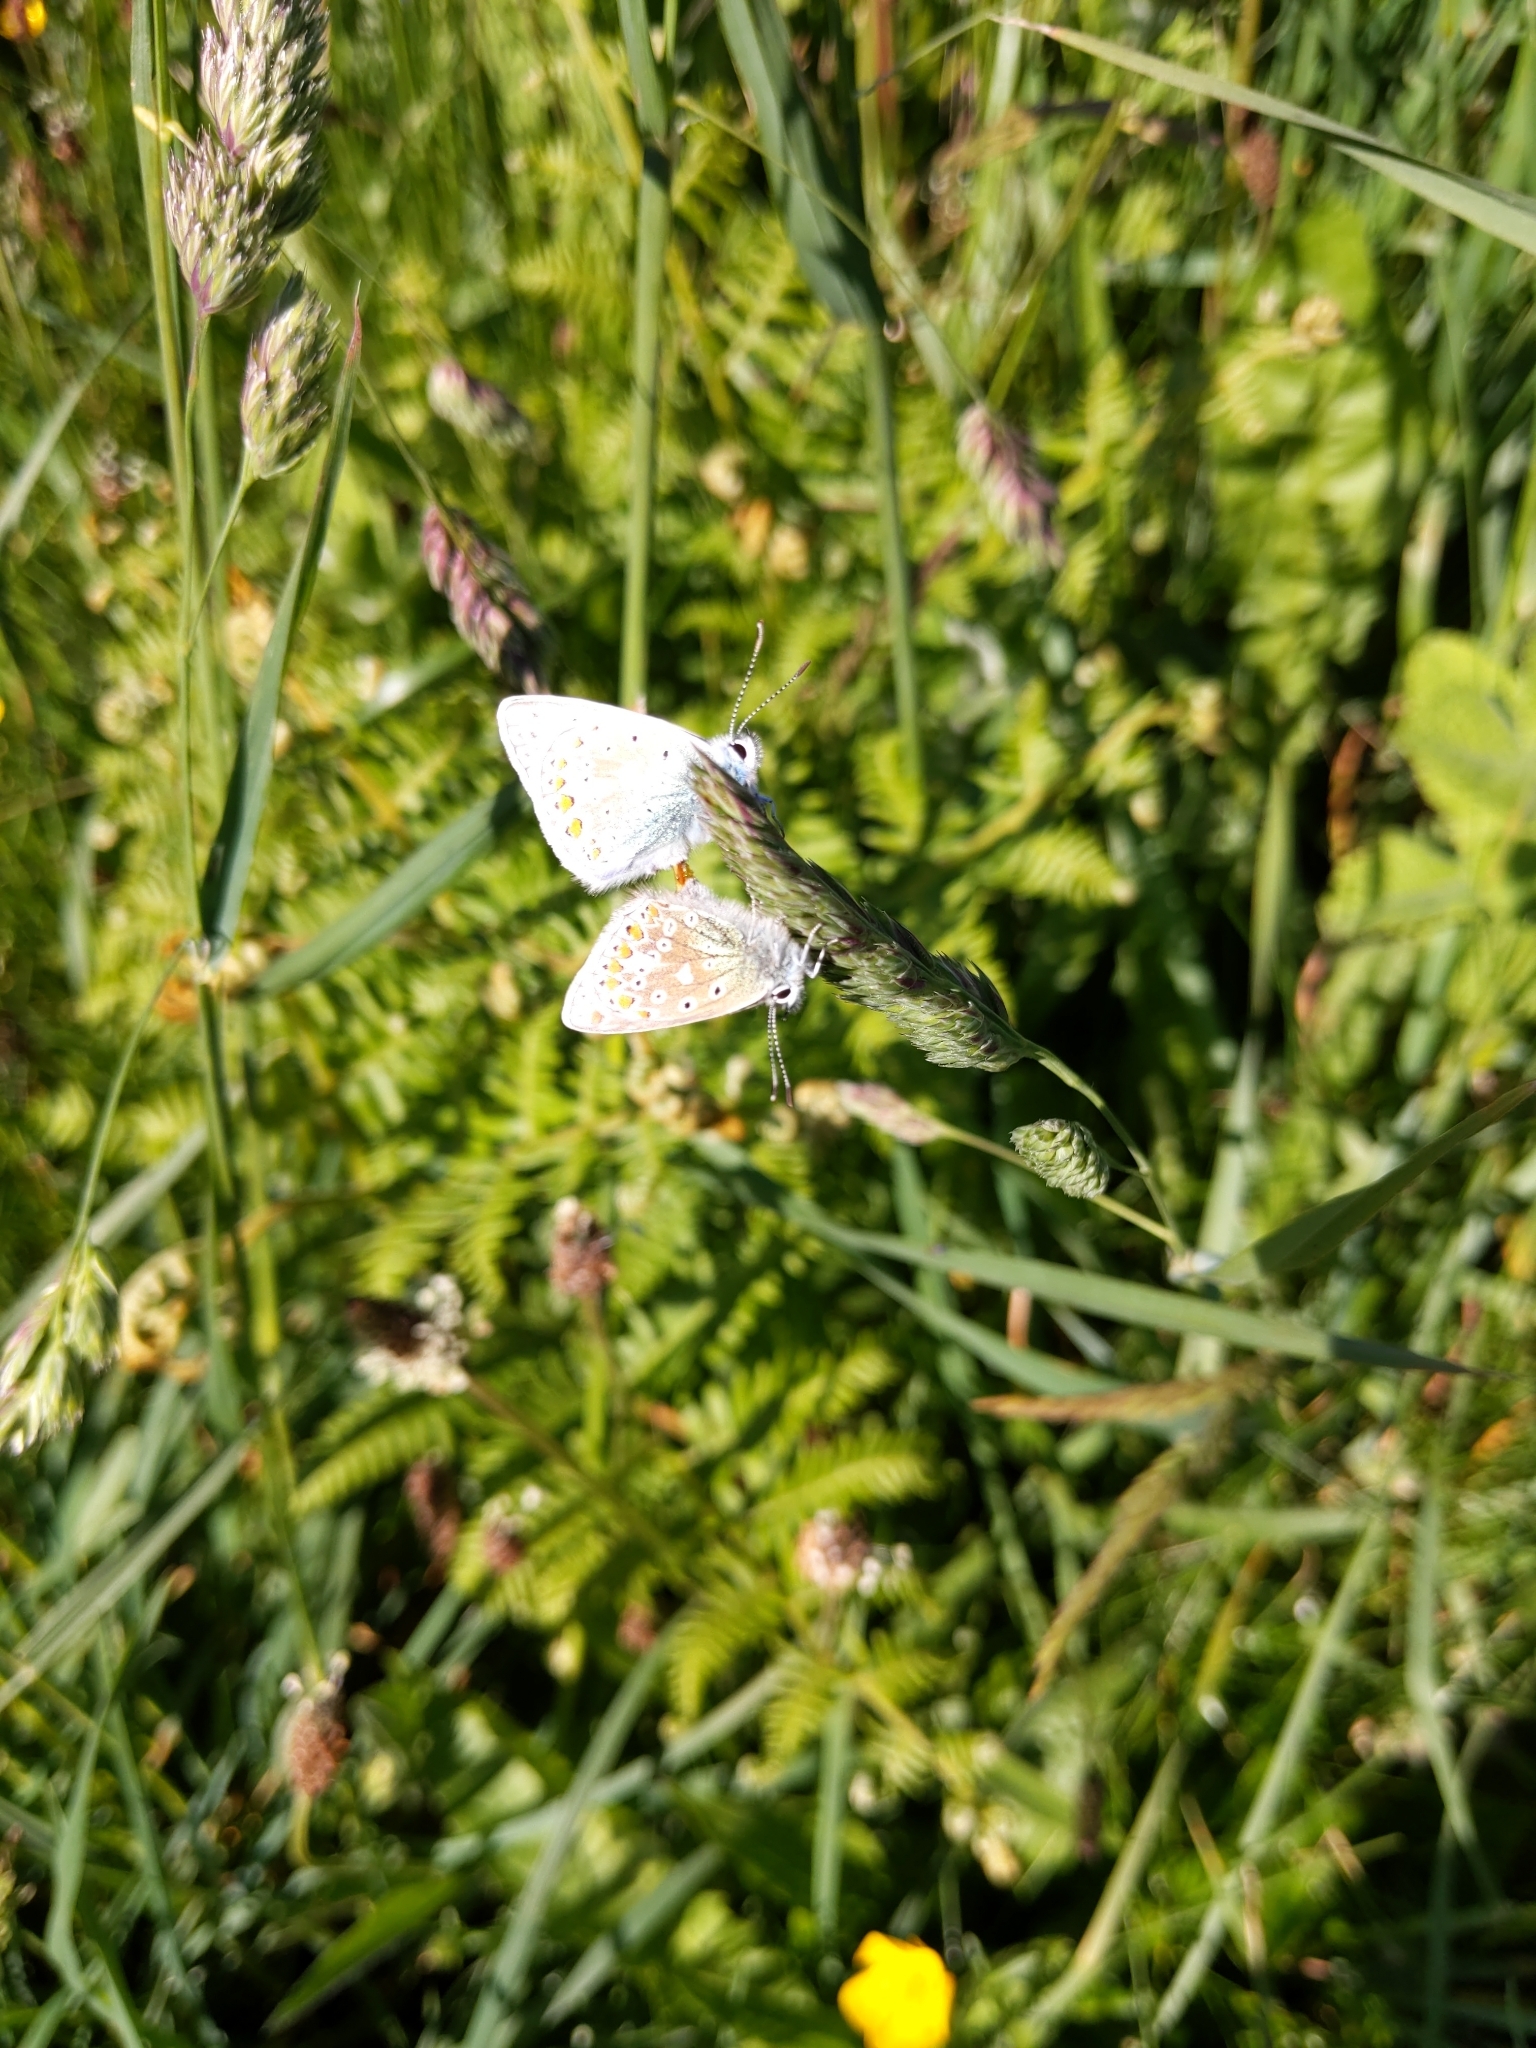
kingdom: Animalia
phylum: Arthropoda
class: Insecta
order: Lepidoptera
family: Lycaenidae
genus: Polyommatus
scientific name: Polyommatus icarus
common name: Common blue
